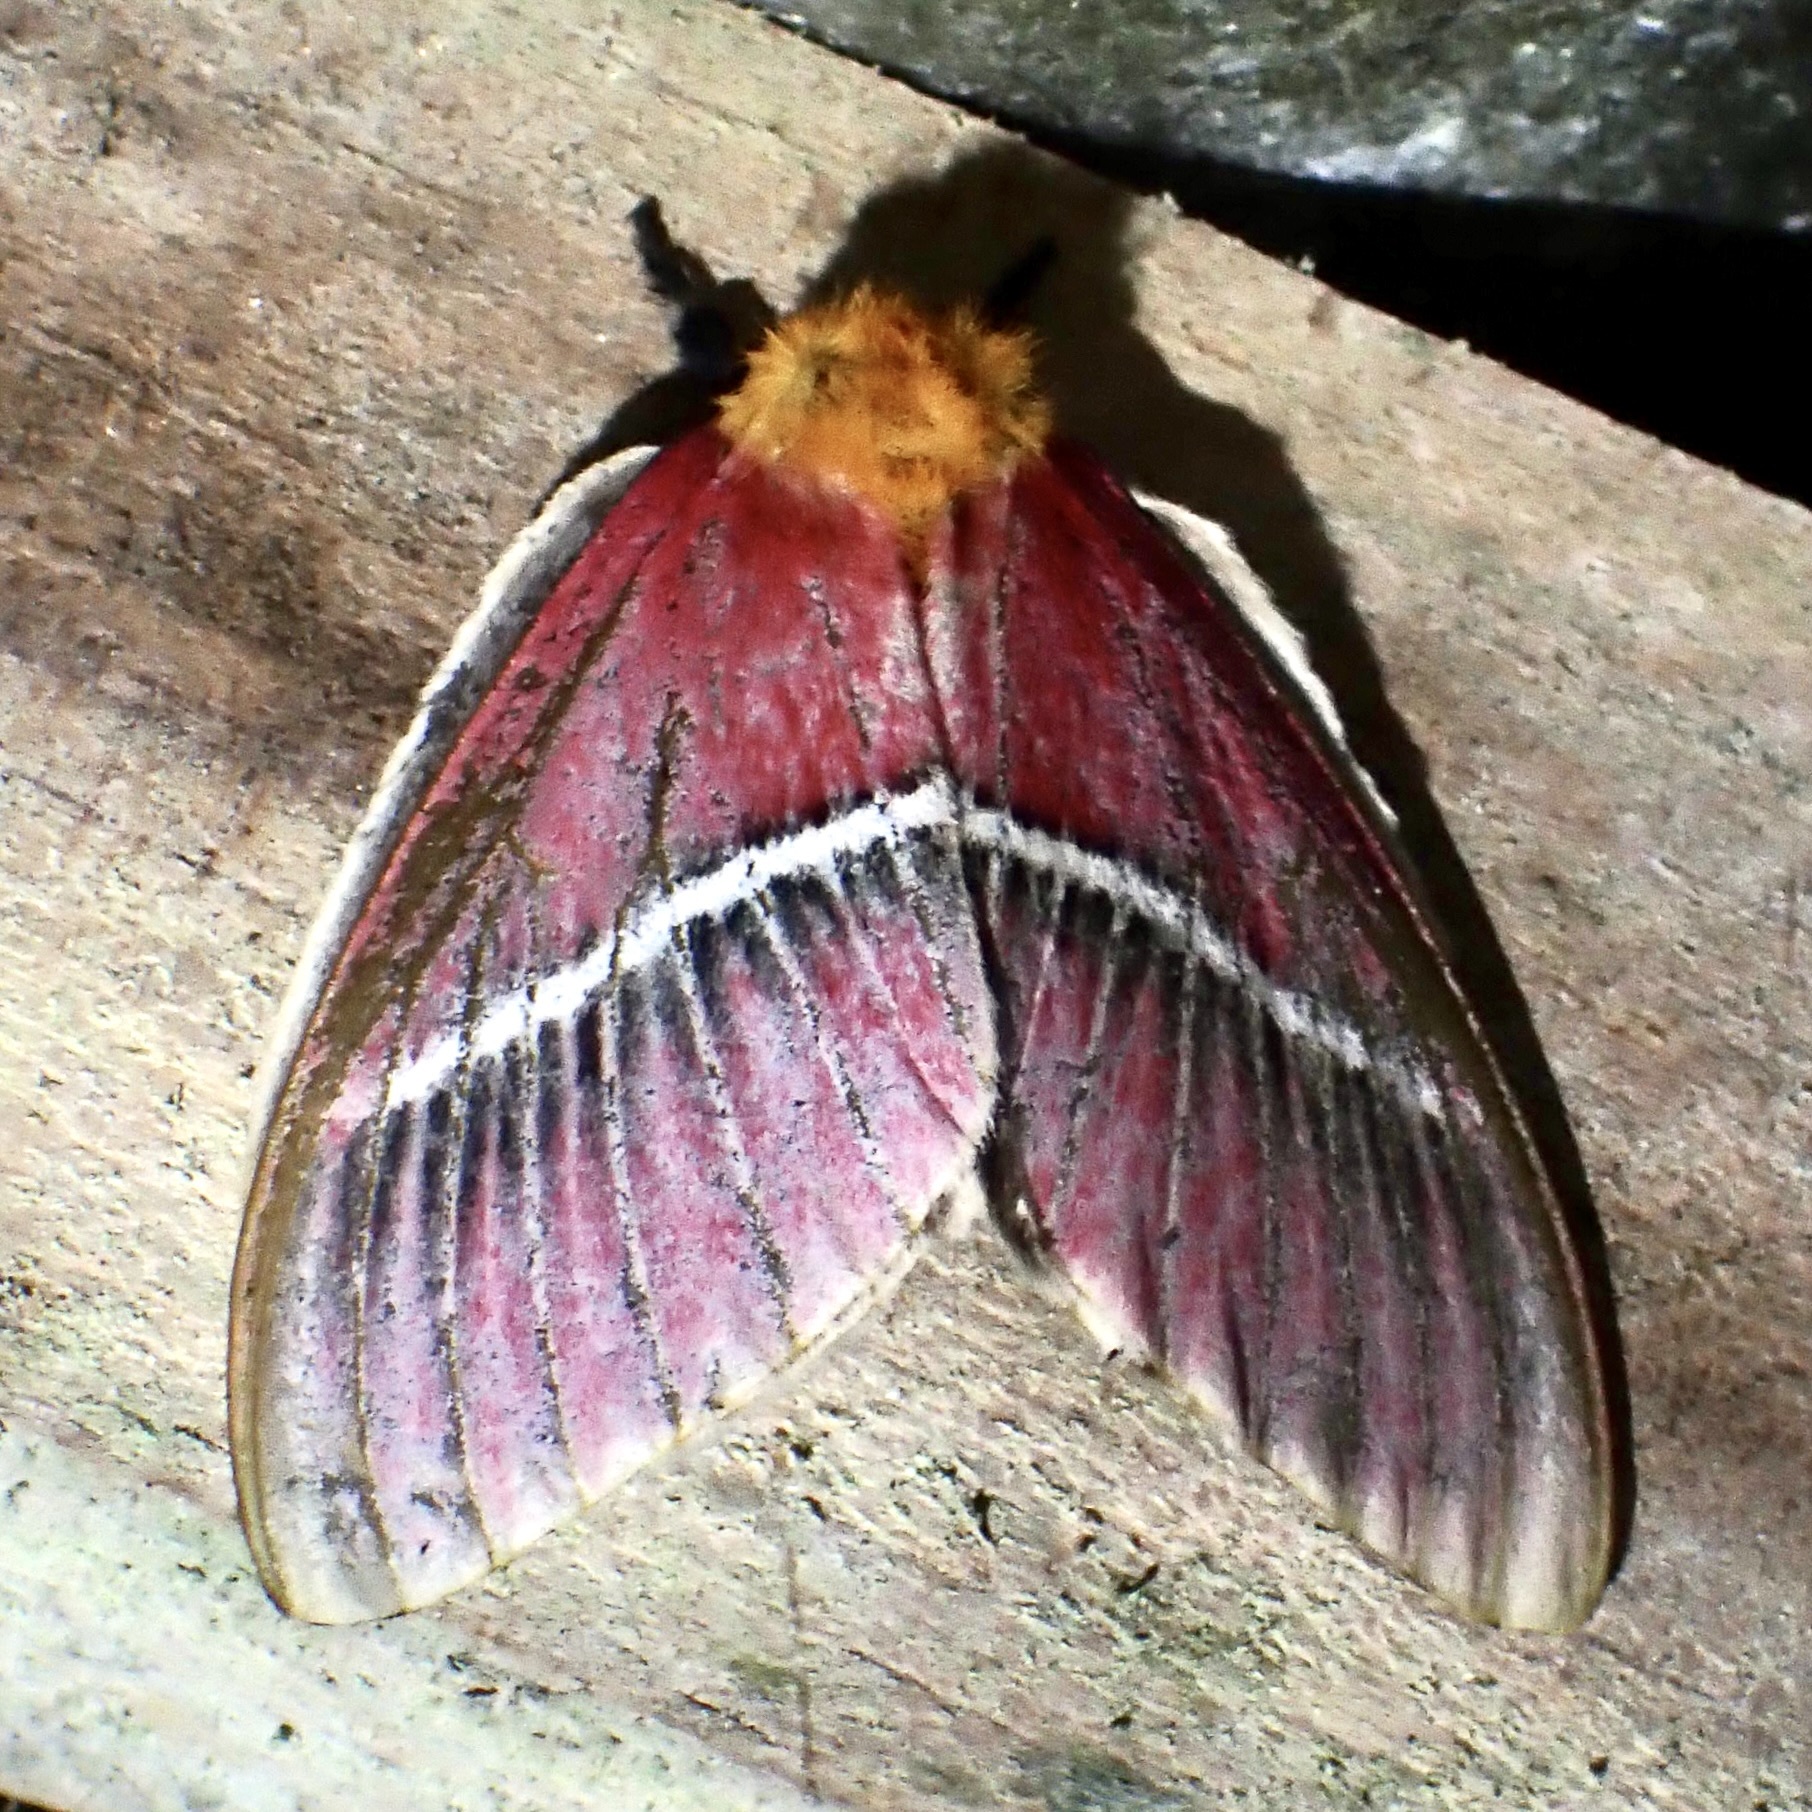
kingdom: Animalia
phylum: Arthropoda
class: Insecta
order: Lepidoptera
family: Saturniidae
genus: Pseudodirphia
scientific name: Pseudodirphia menander
